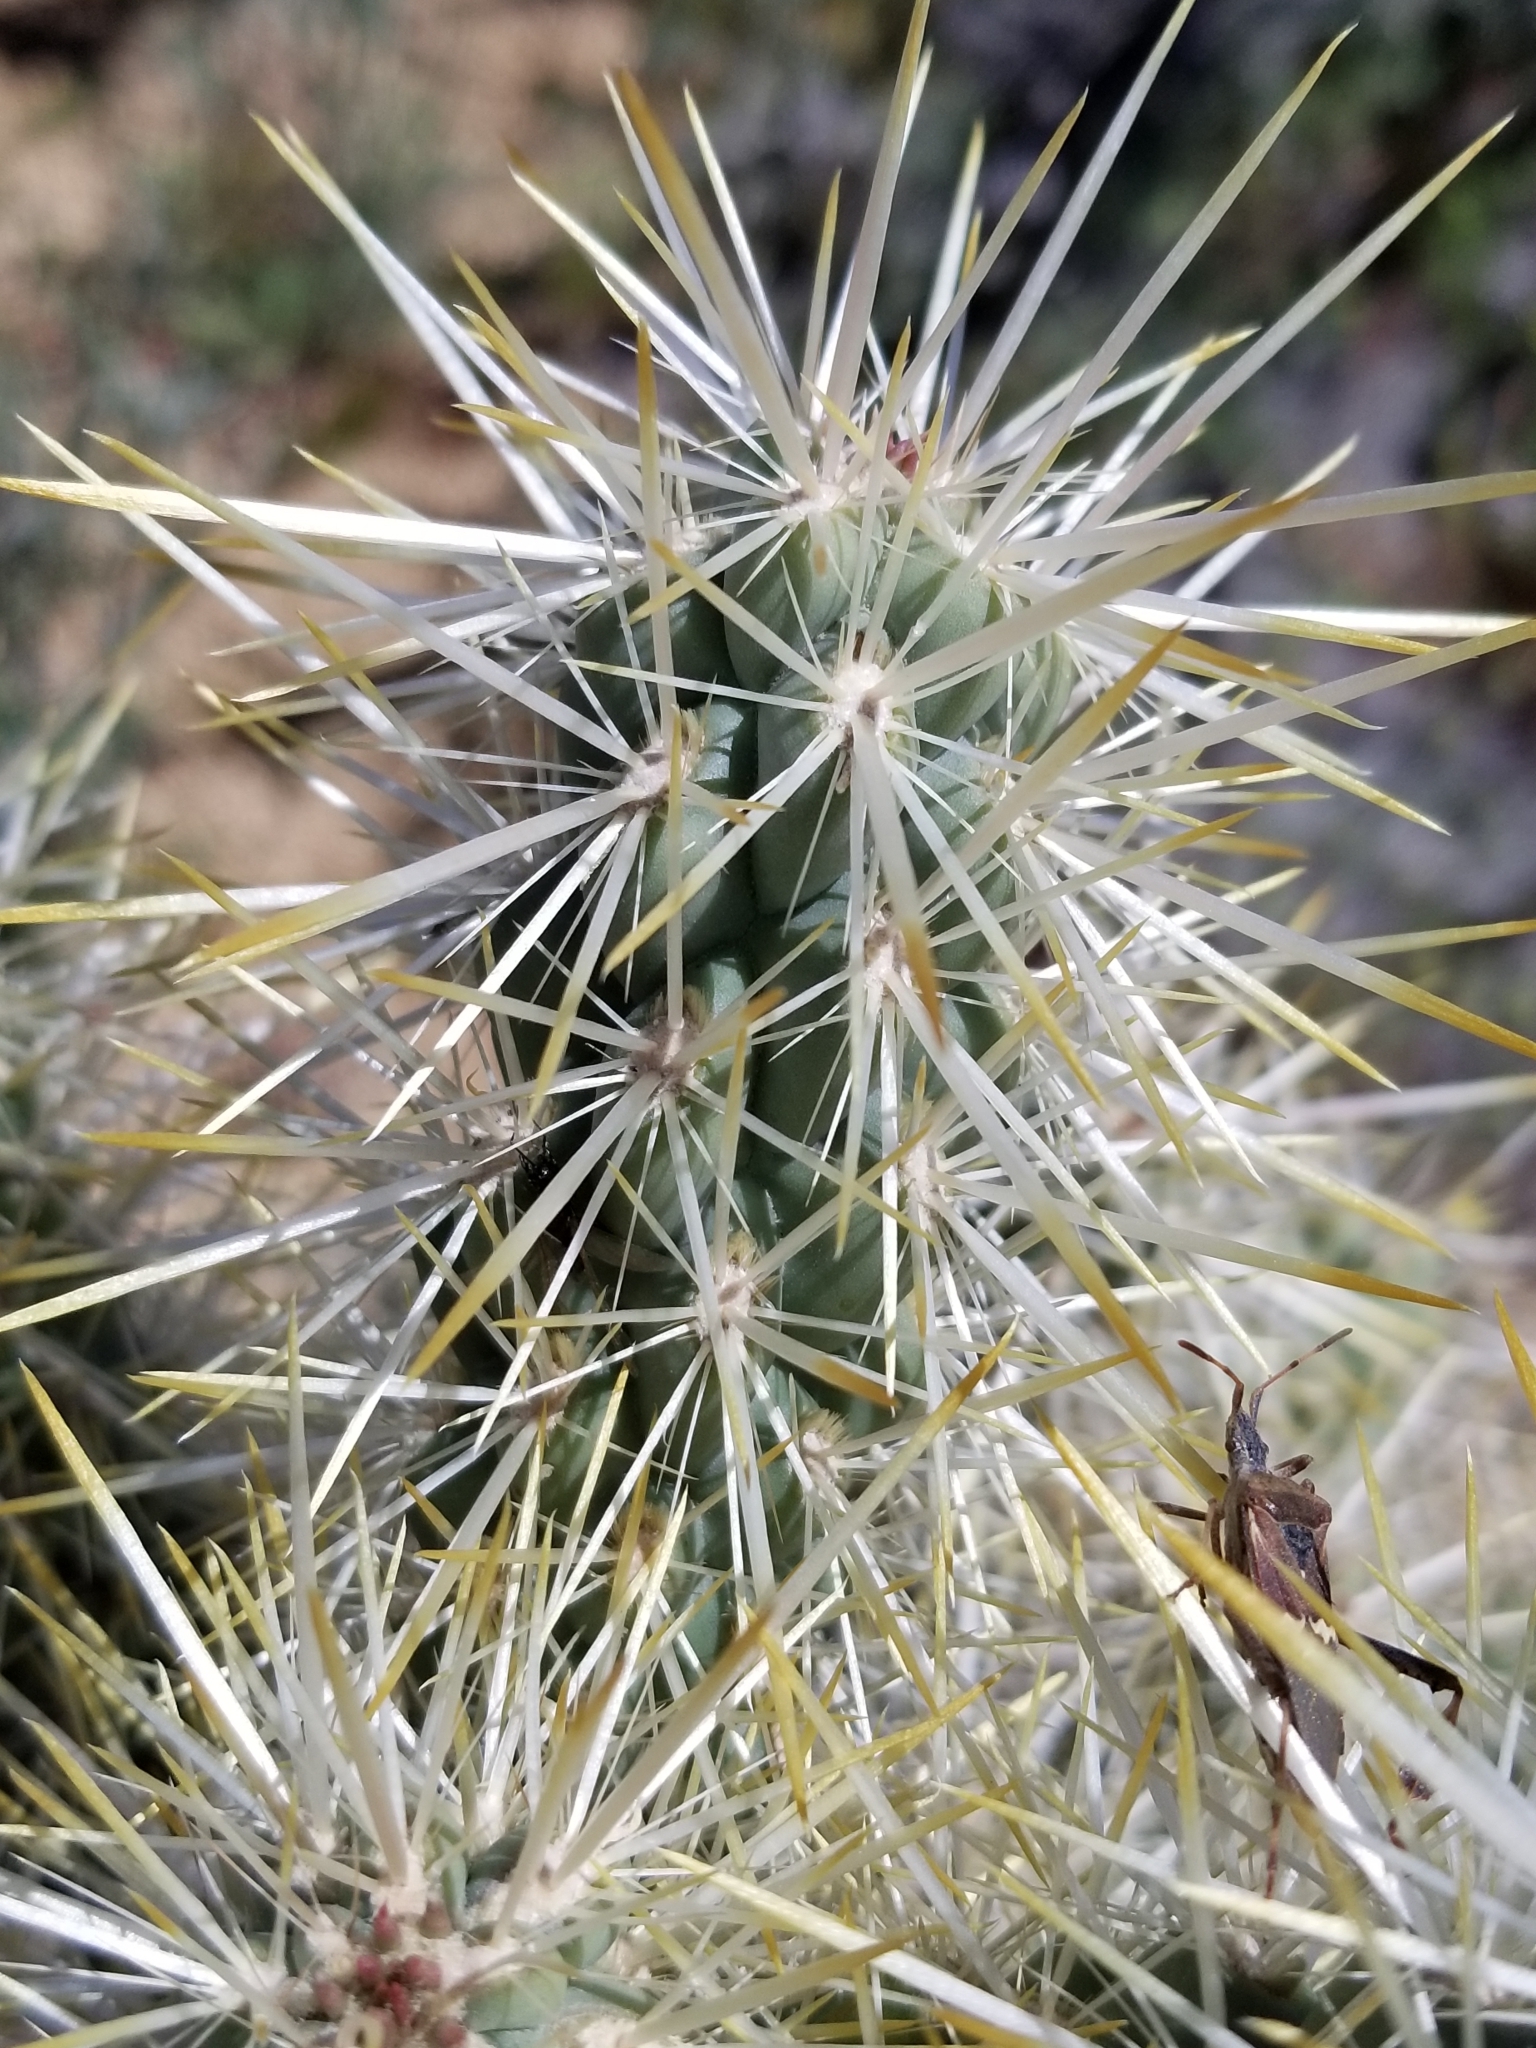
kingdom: Plantae
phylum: Tracheophyta
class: Magnoliopsida
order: Caryophyllales
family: Cactaceae
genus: Cylindropuntia
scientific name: Cylindropuntia echinocarpa
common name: Ground cholla
